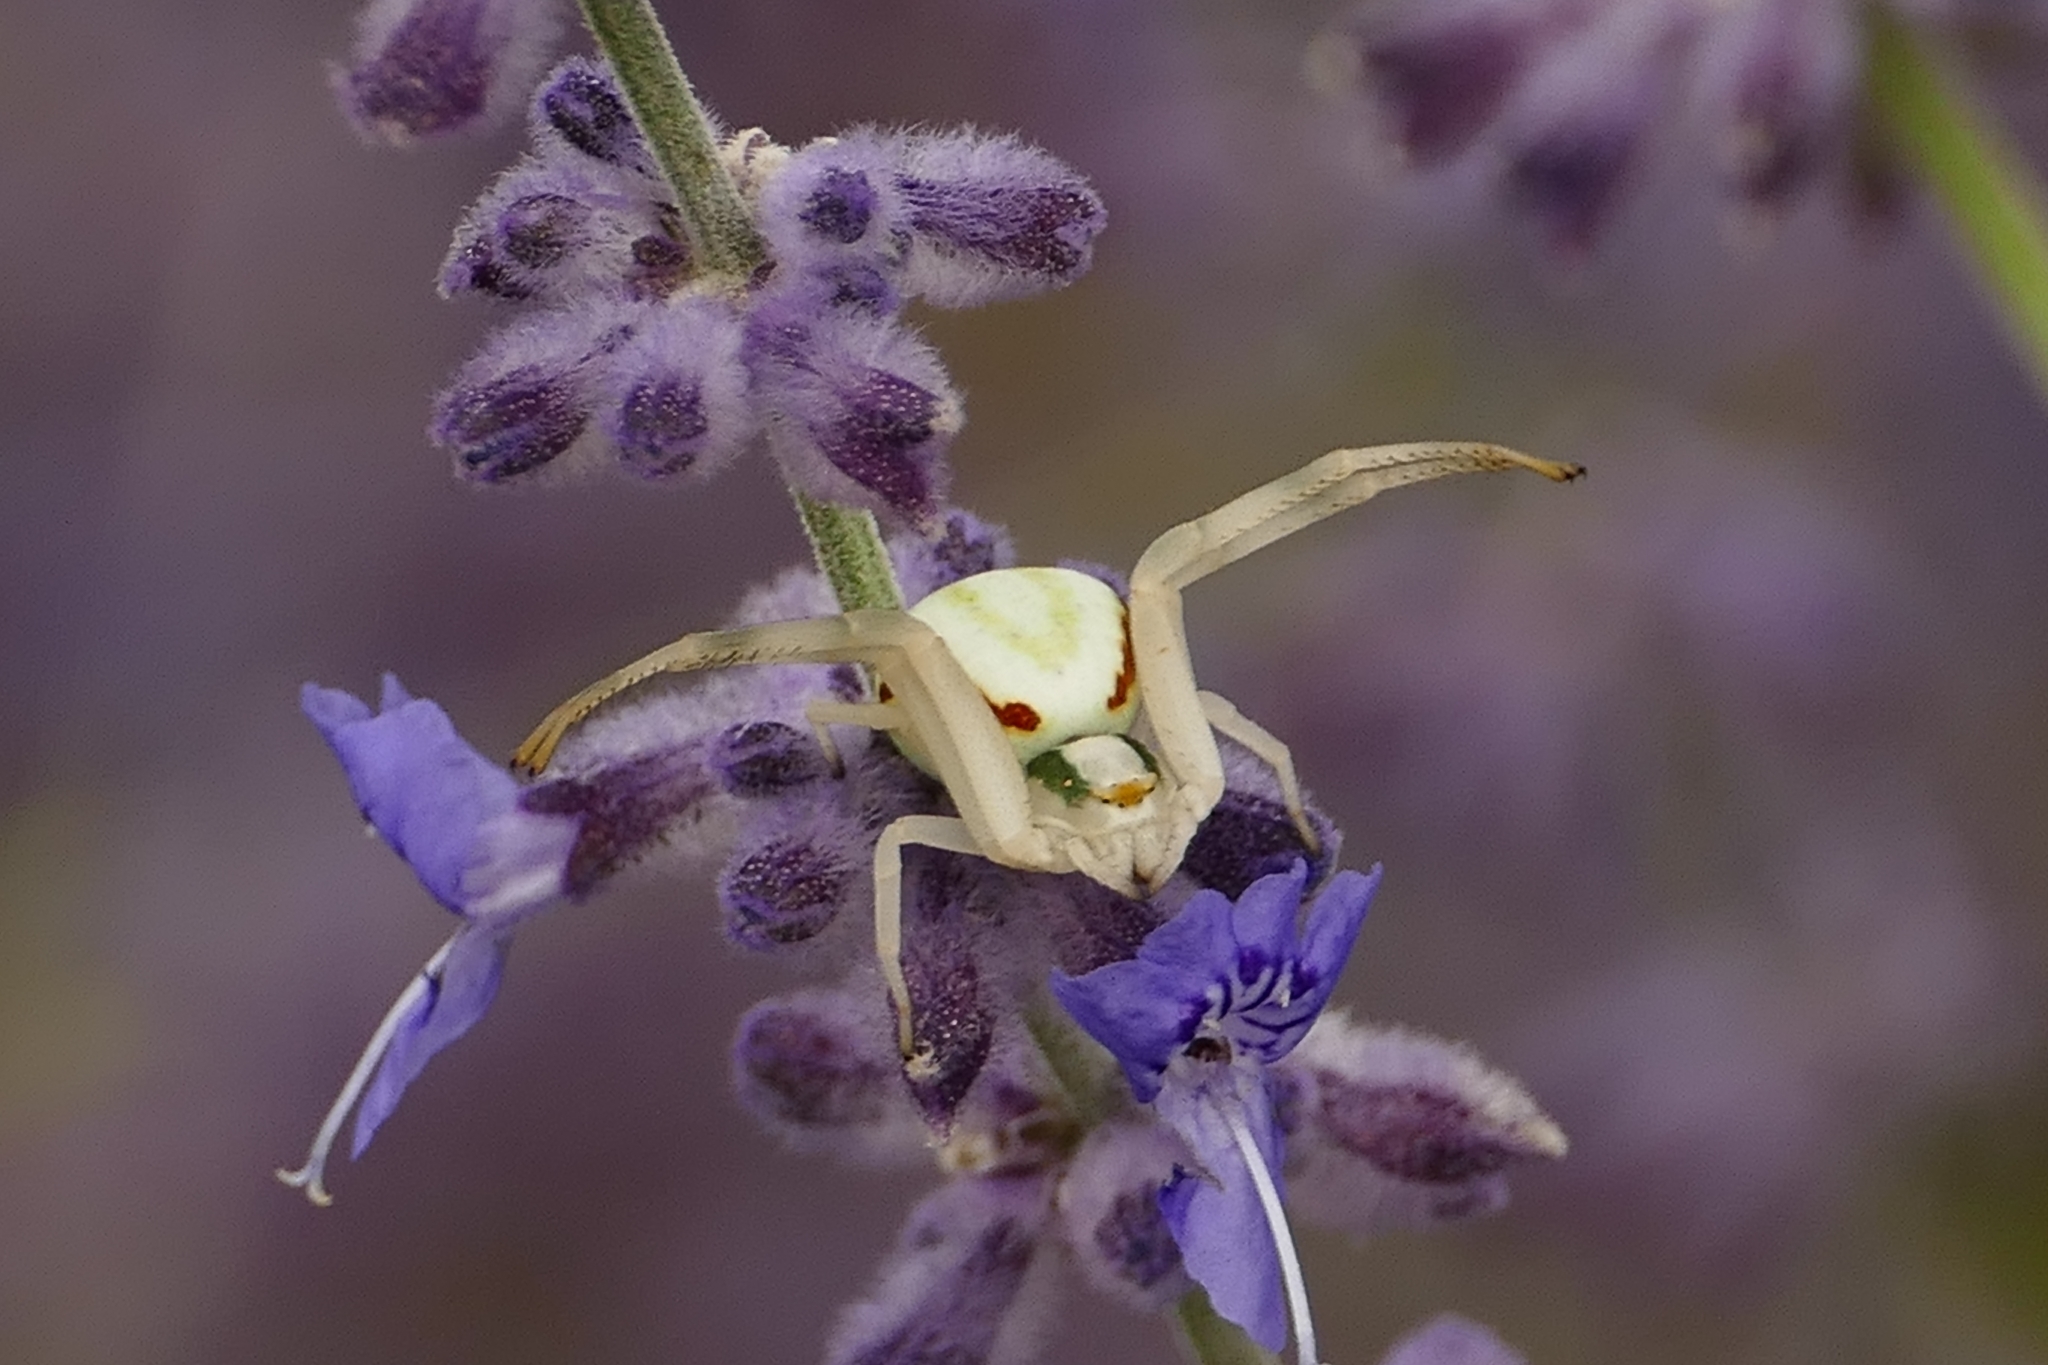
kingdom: Animalia
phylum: Arthropoda
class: Arachnida
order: Araneae
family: Thomisidae
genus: Misumena
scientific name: Misumena vatia
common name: Goldenrod crab spider
